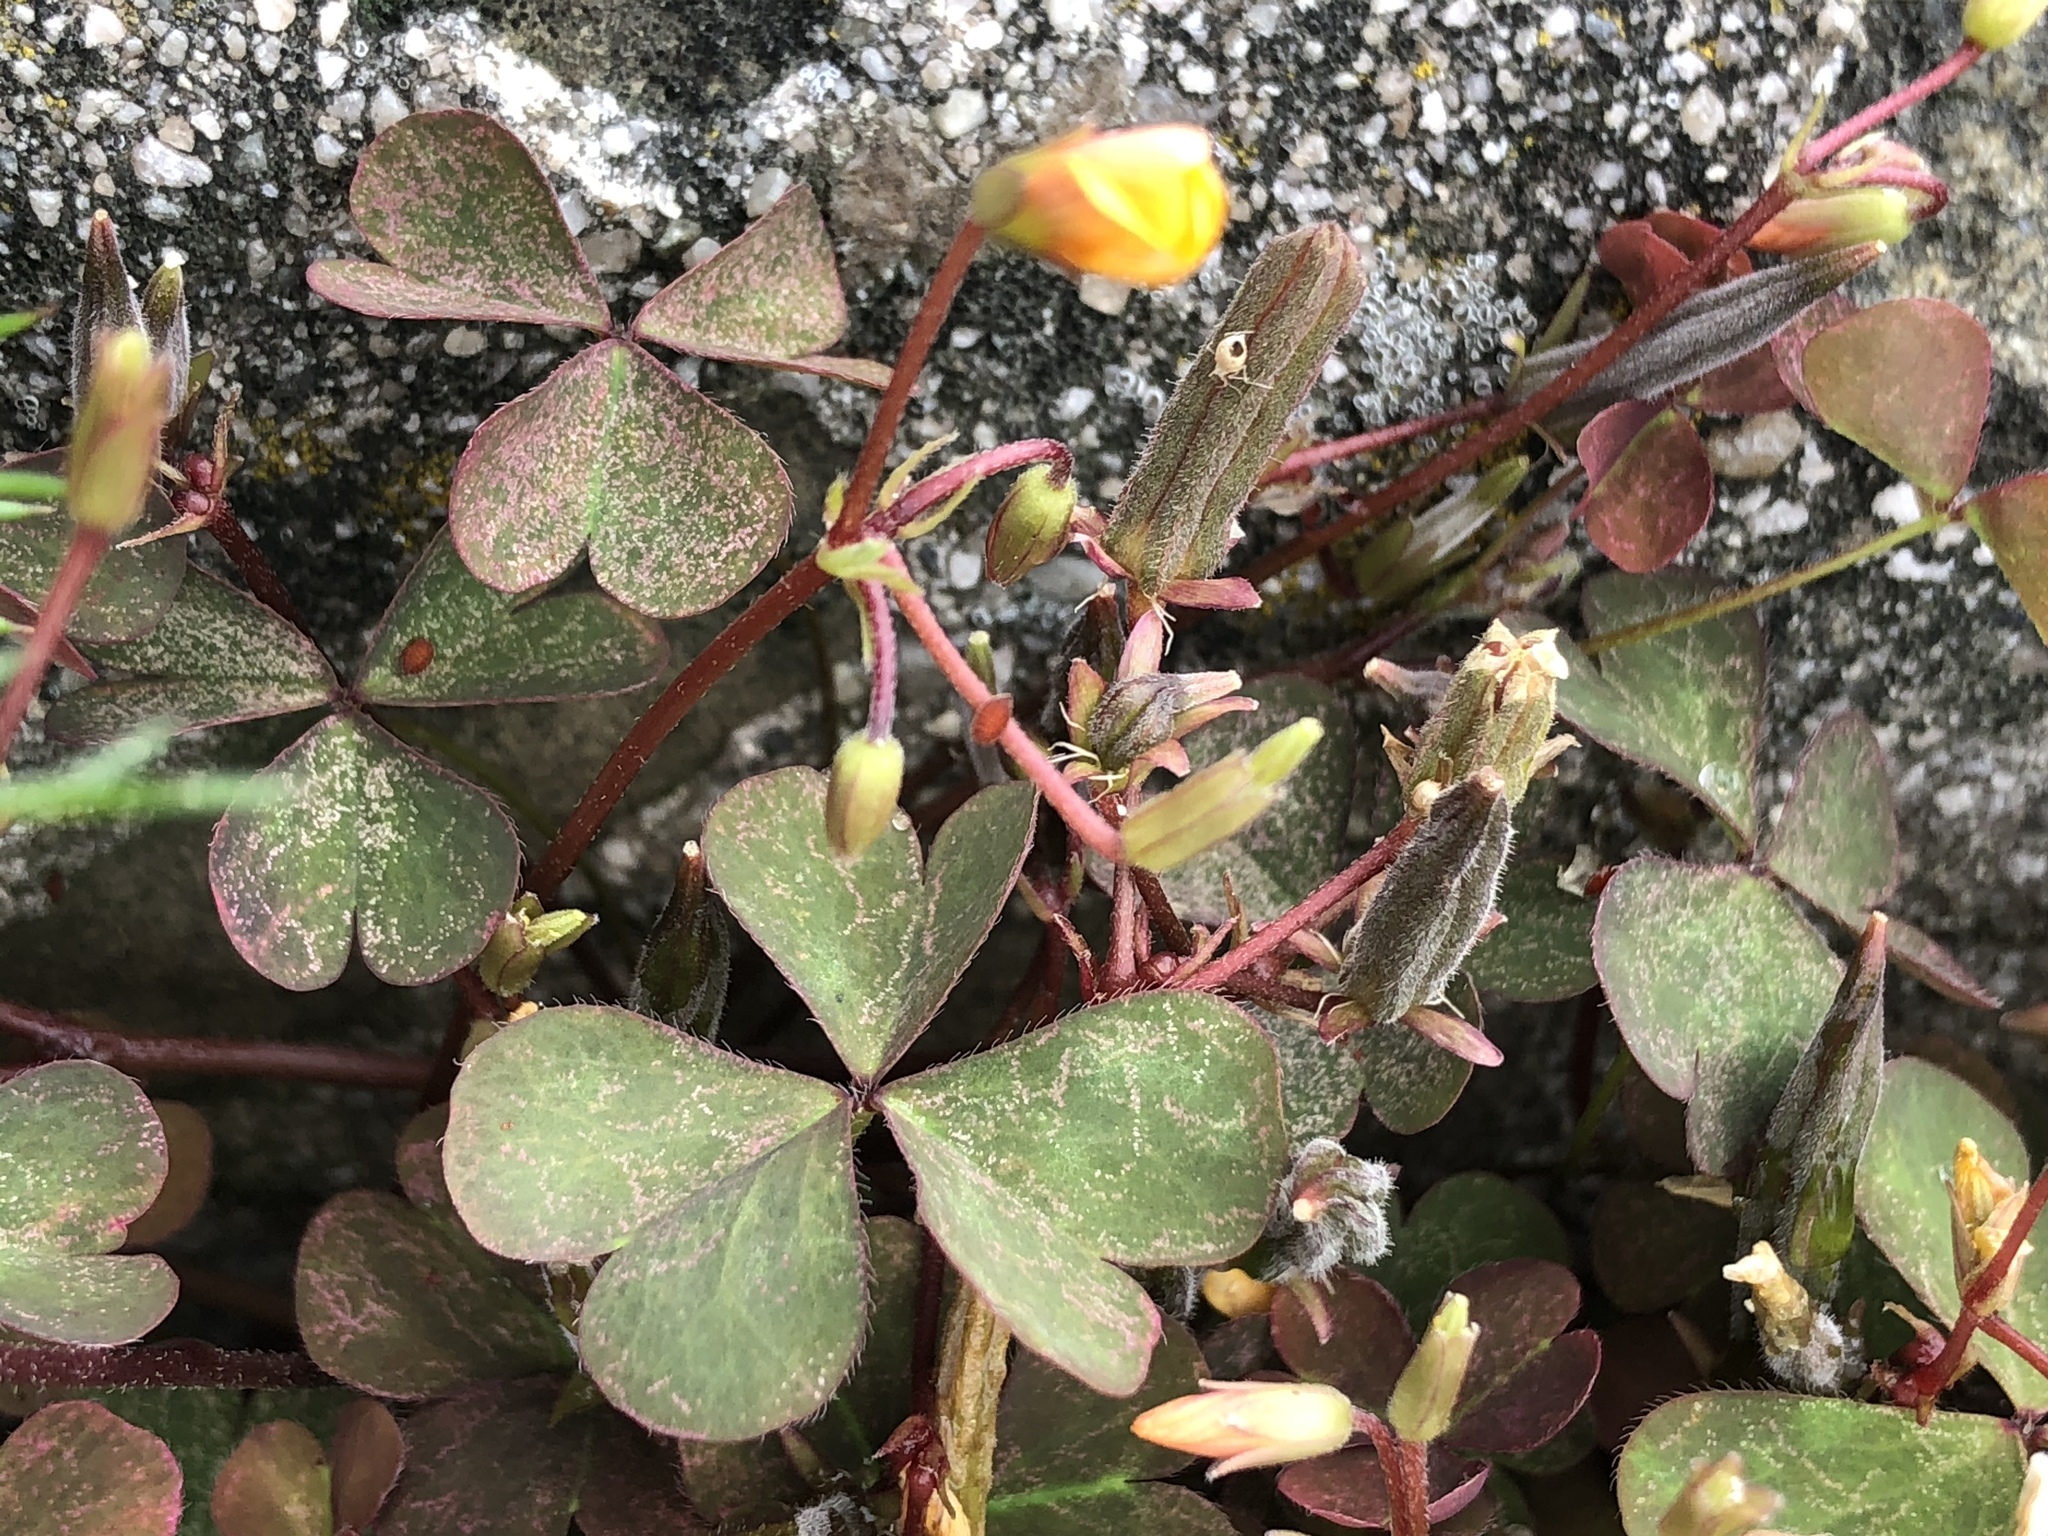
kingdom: Plantae
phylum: Tracheophyta
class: Magnoliopsida
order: Oxalidales
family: Oxalidaceae
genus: Oxalis
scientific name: Oxalis corniculata
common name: Procumbent yellow-sorrel
